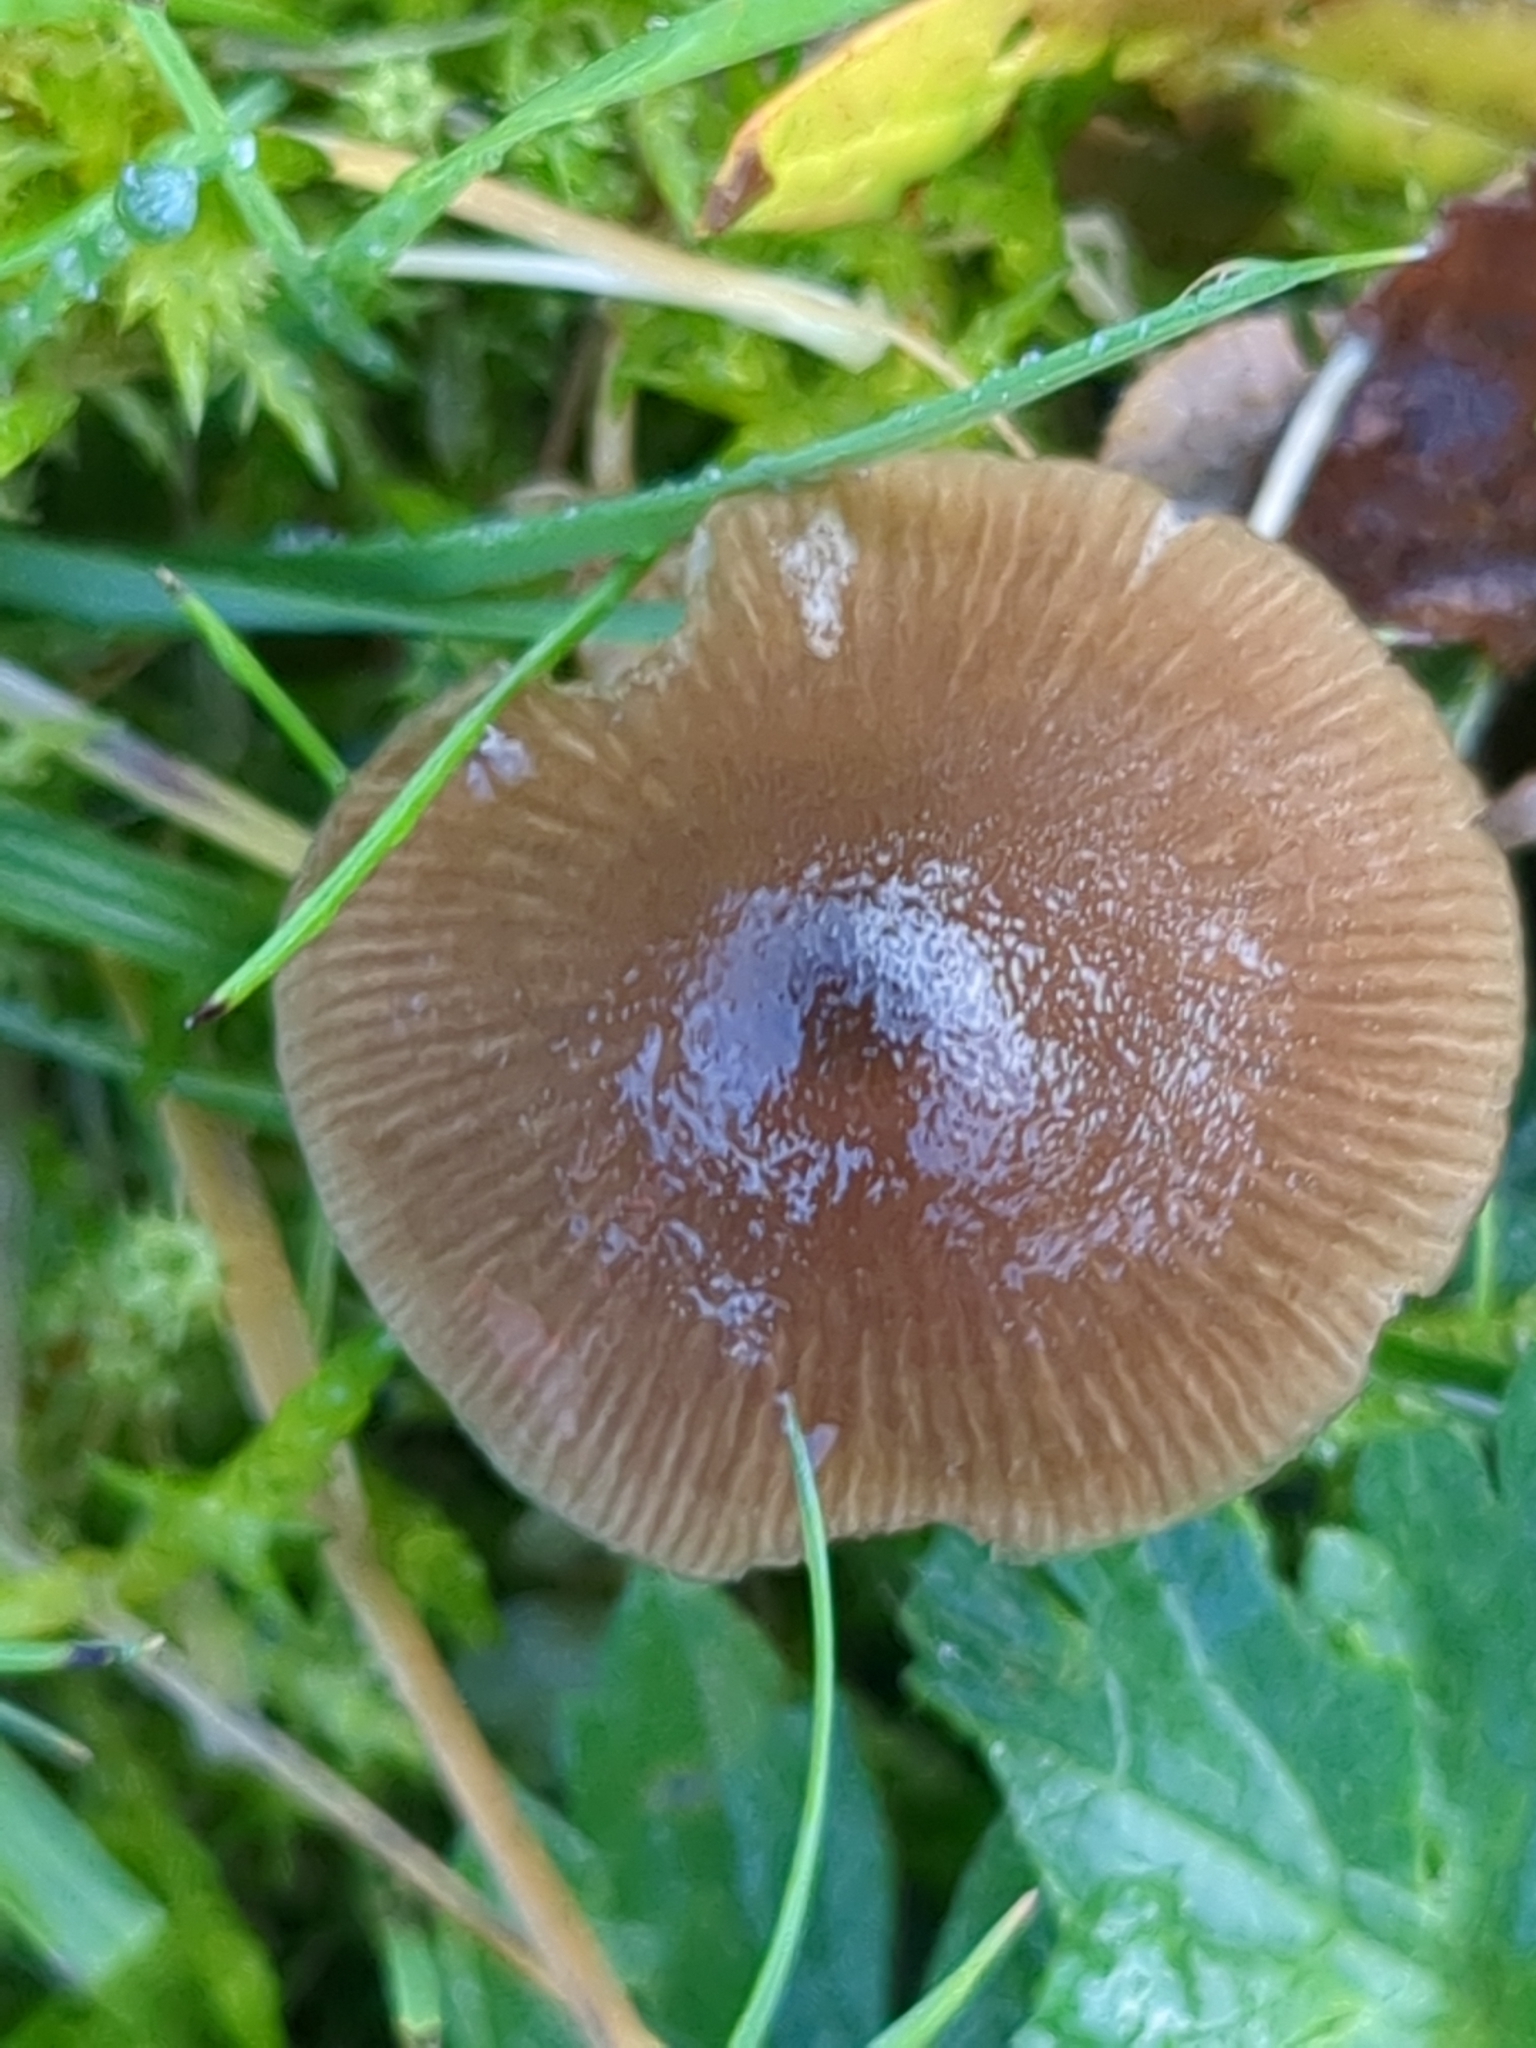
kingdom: Fungi
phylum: Basidiomycota
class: Agaricomycetes
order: Agaricales
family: Entolomataceae
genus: Entoloma
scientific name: Entoloma conferendum
